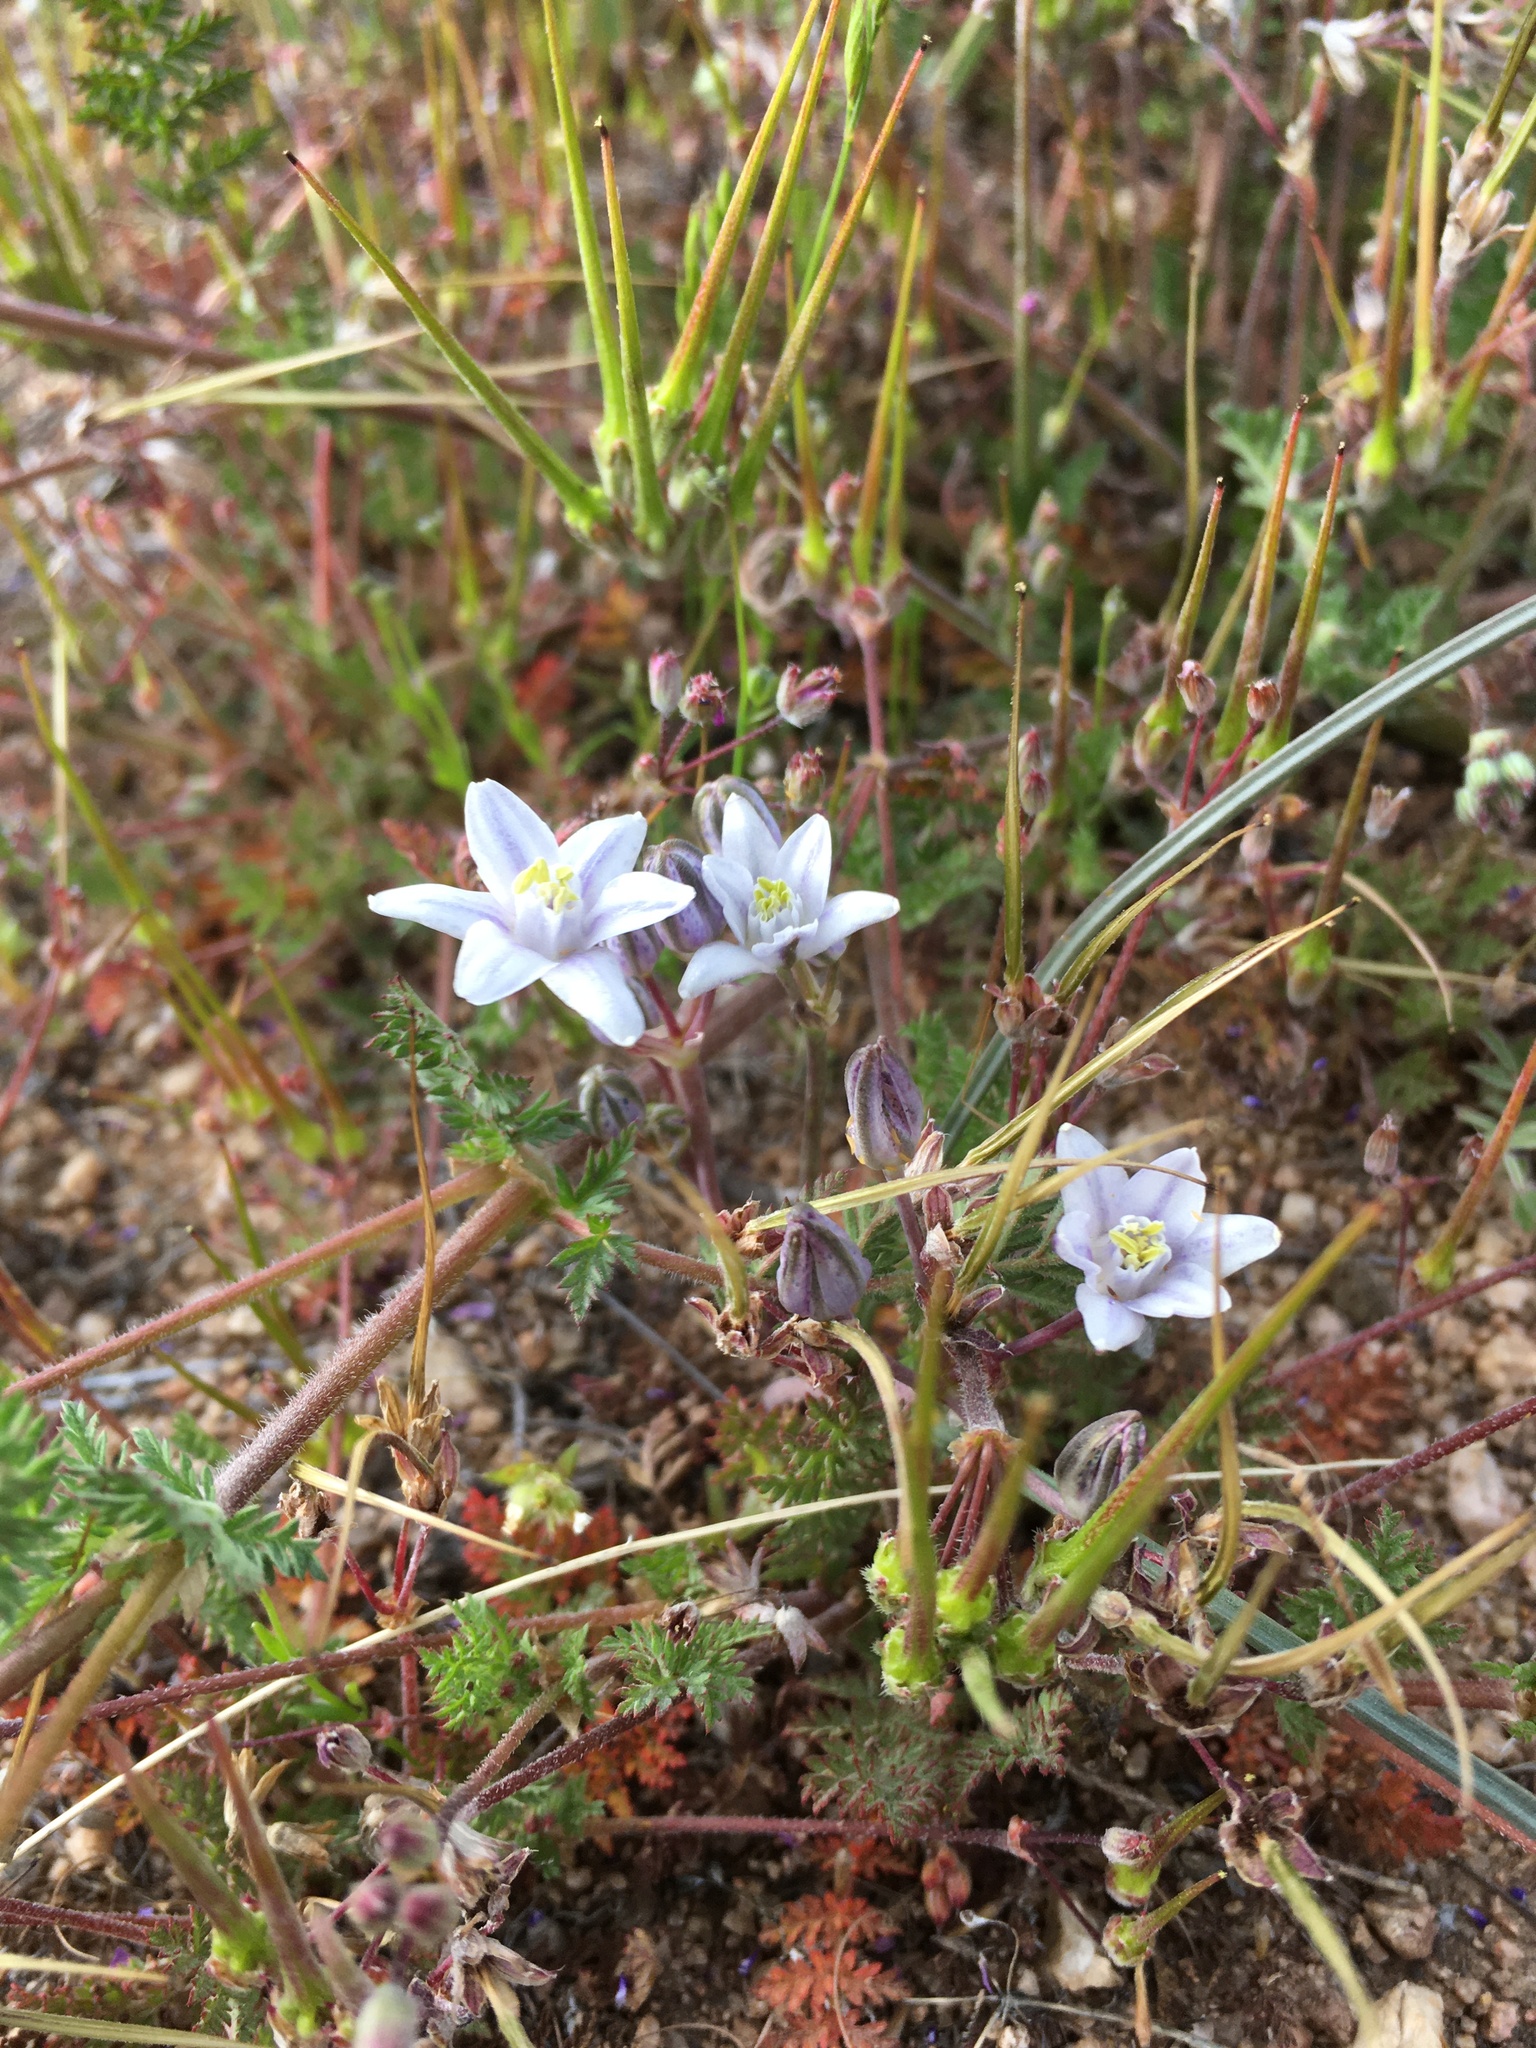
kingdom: Plantae
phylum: Tracheophyta
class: Liliopsida
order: Asparagales
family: Asparagaceae
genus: Muilla
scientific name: Muilla lordsburgana
